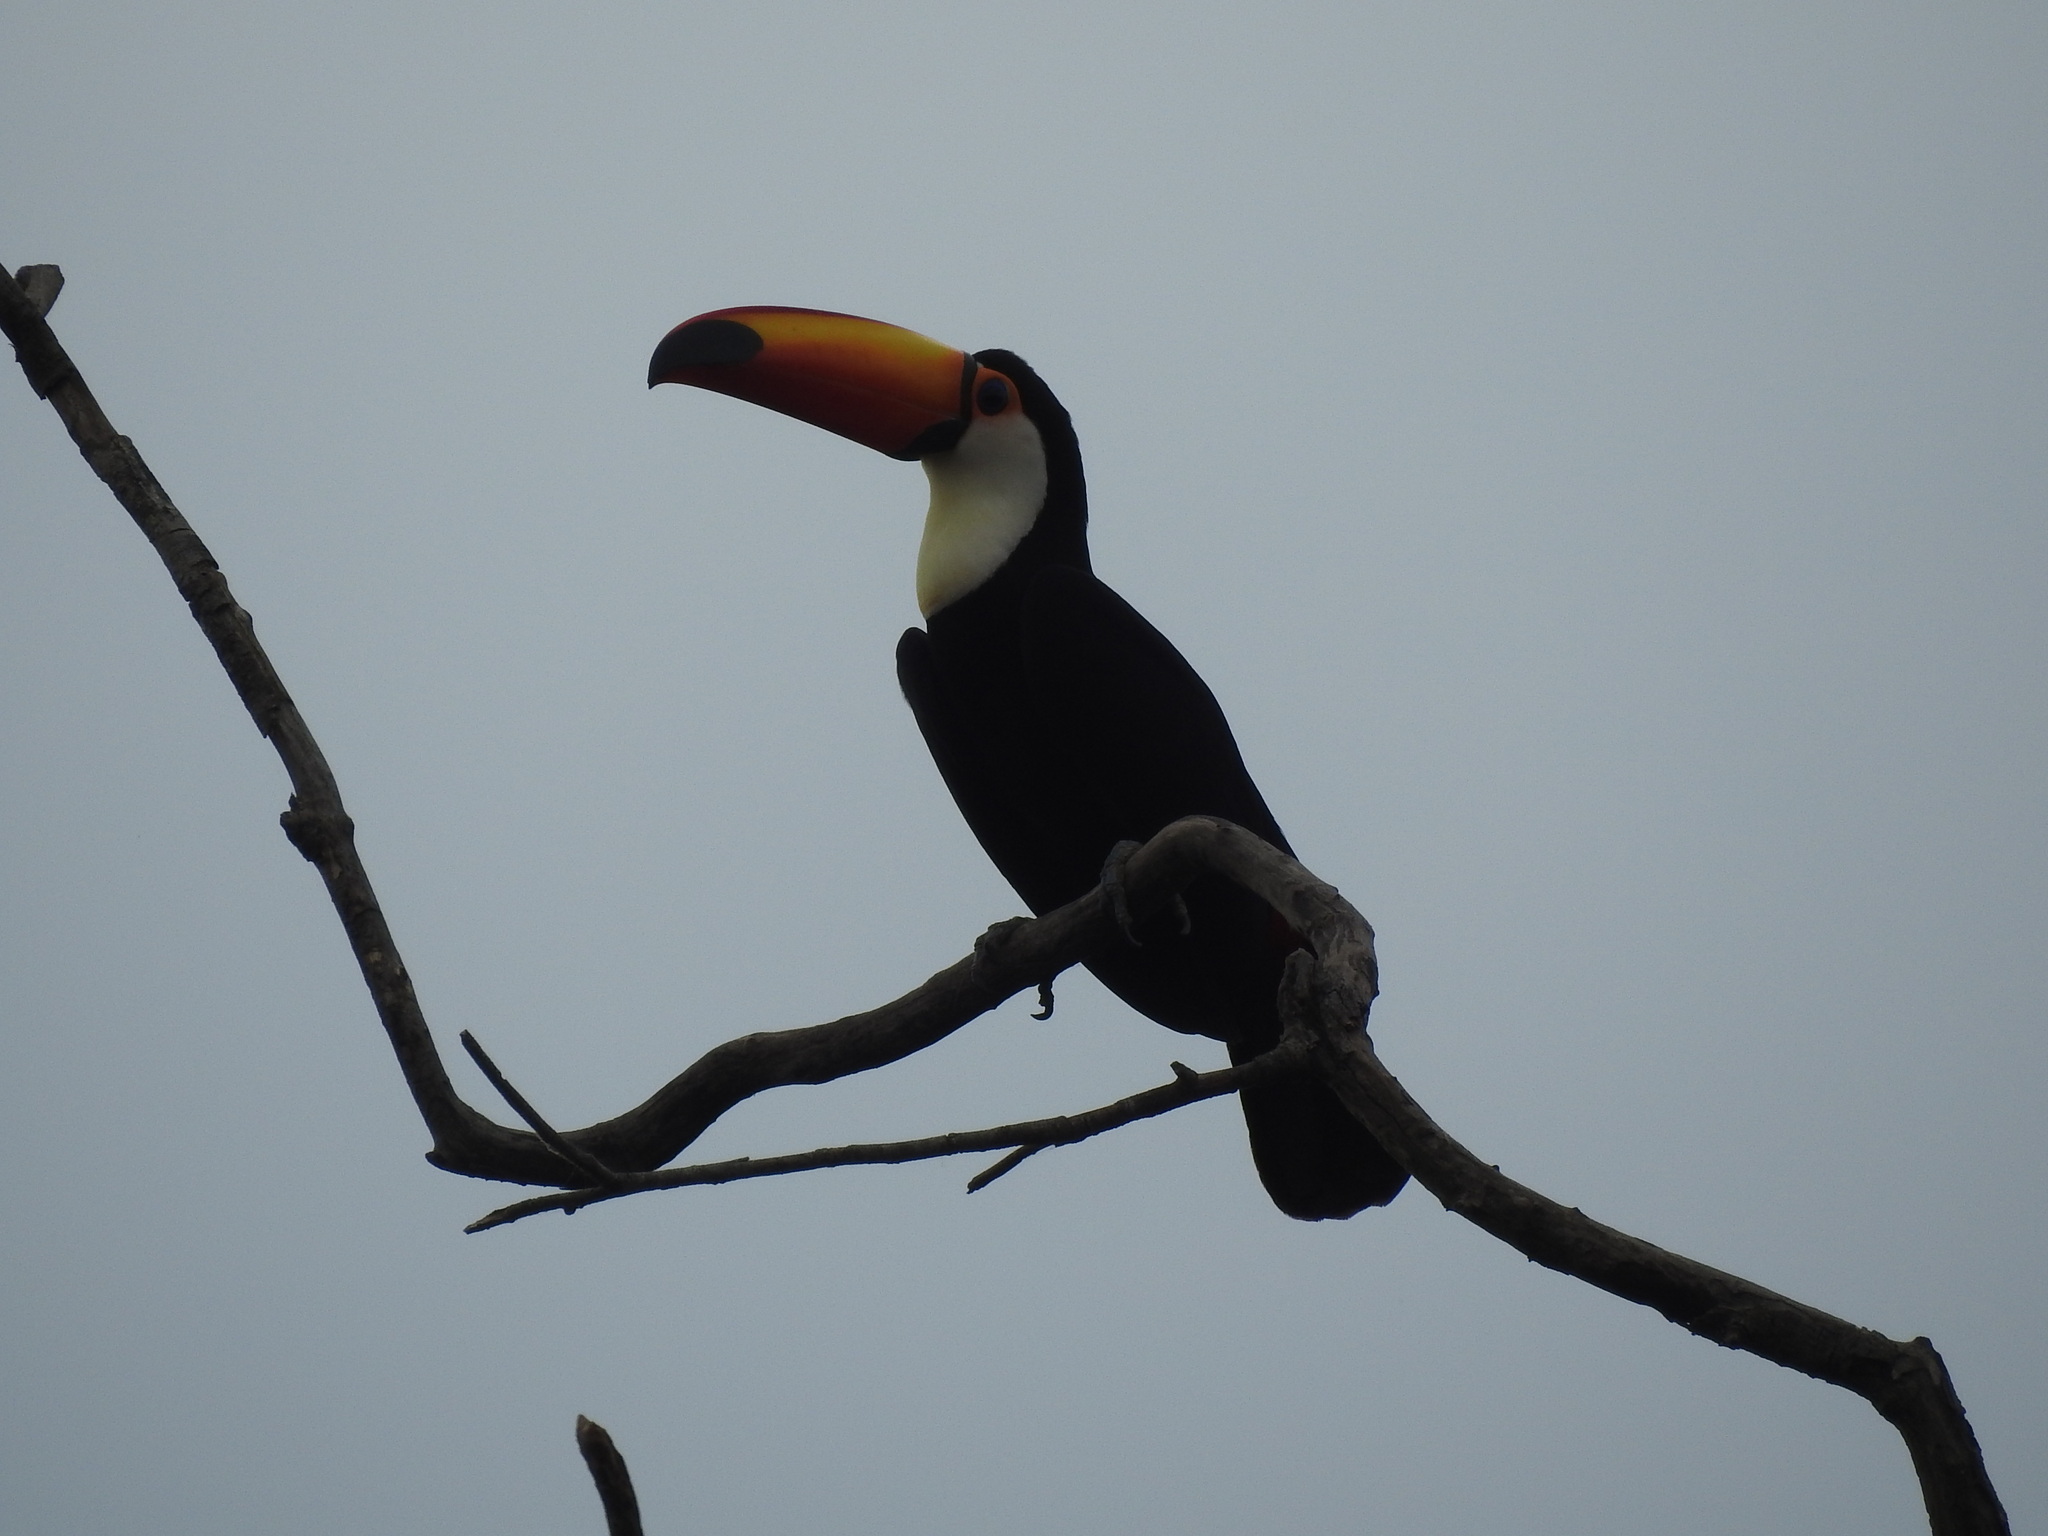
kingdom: Animalia
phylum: Chordata
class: Aves
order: Piciformes
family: Ramphastidae
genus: Ramphastos
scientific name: Ramphastos toco
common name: Toco toucan
